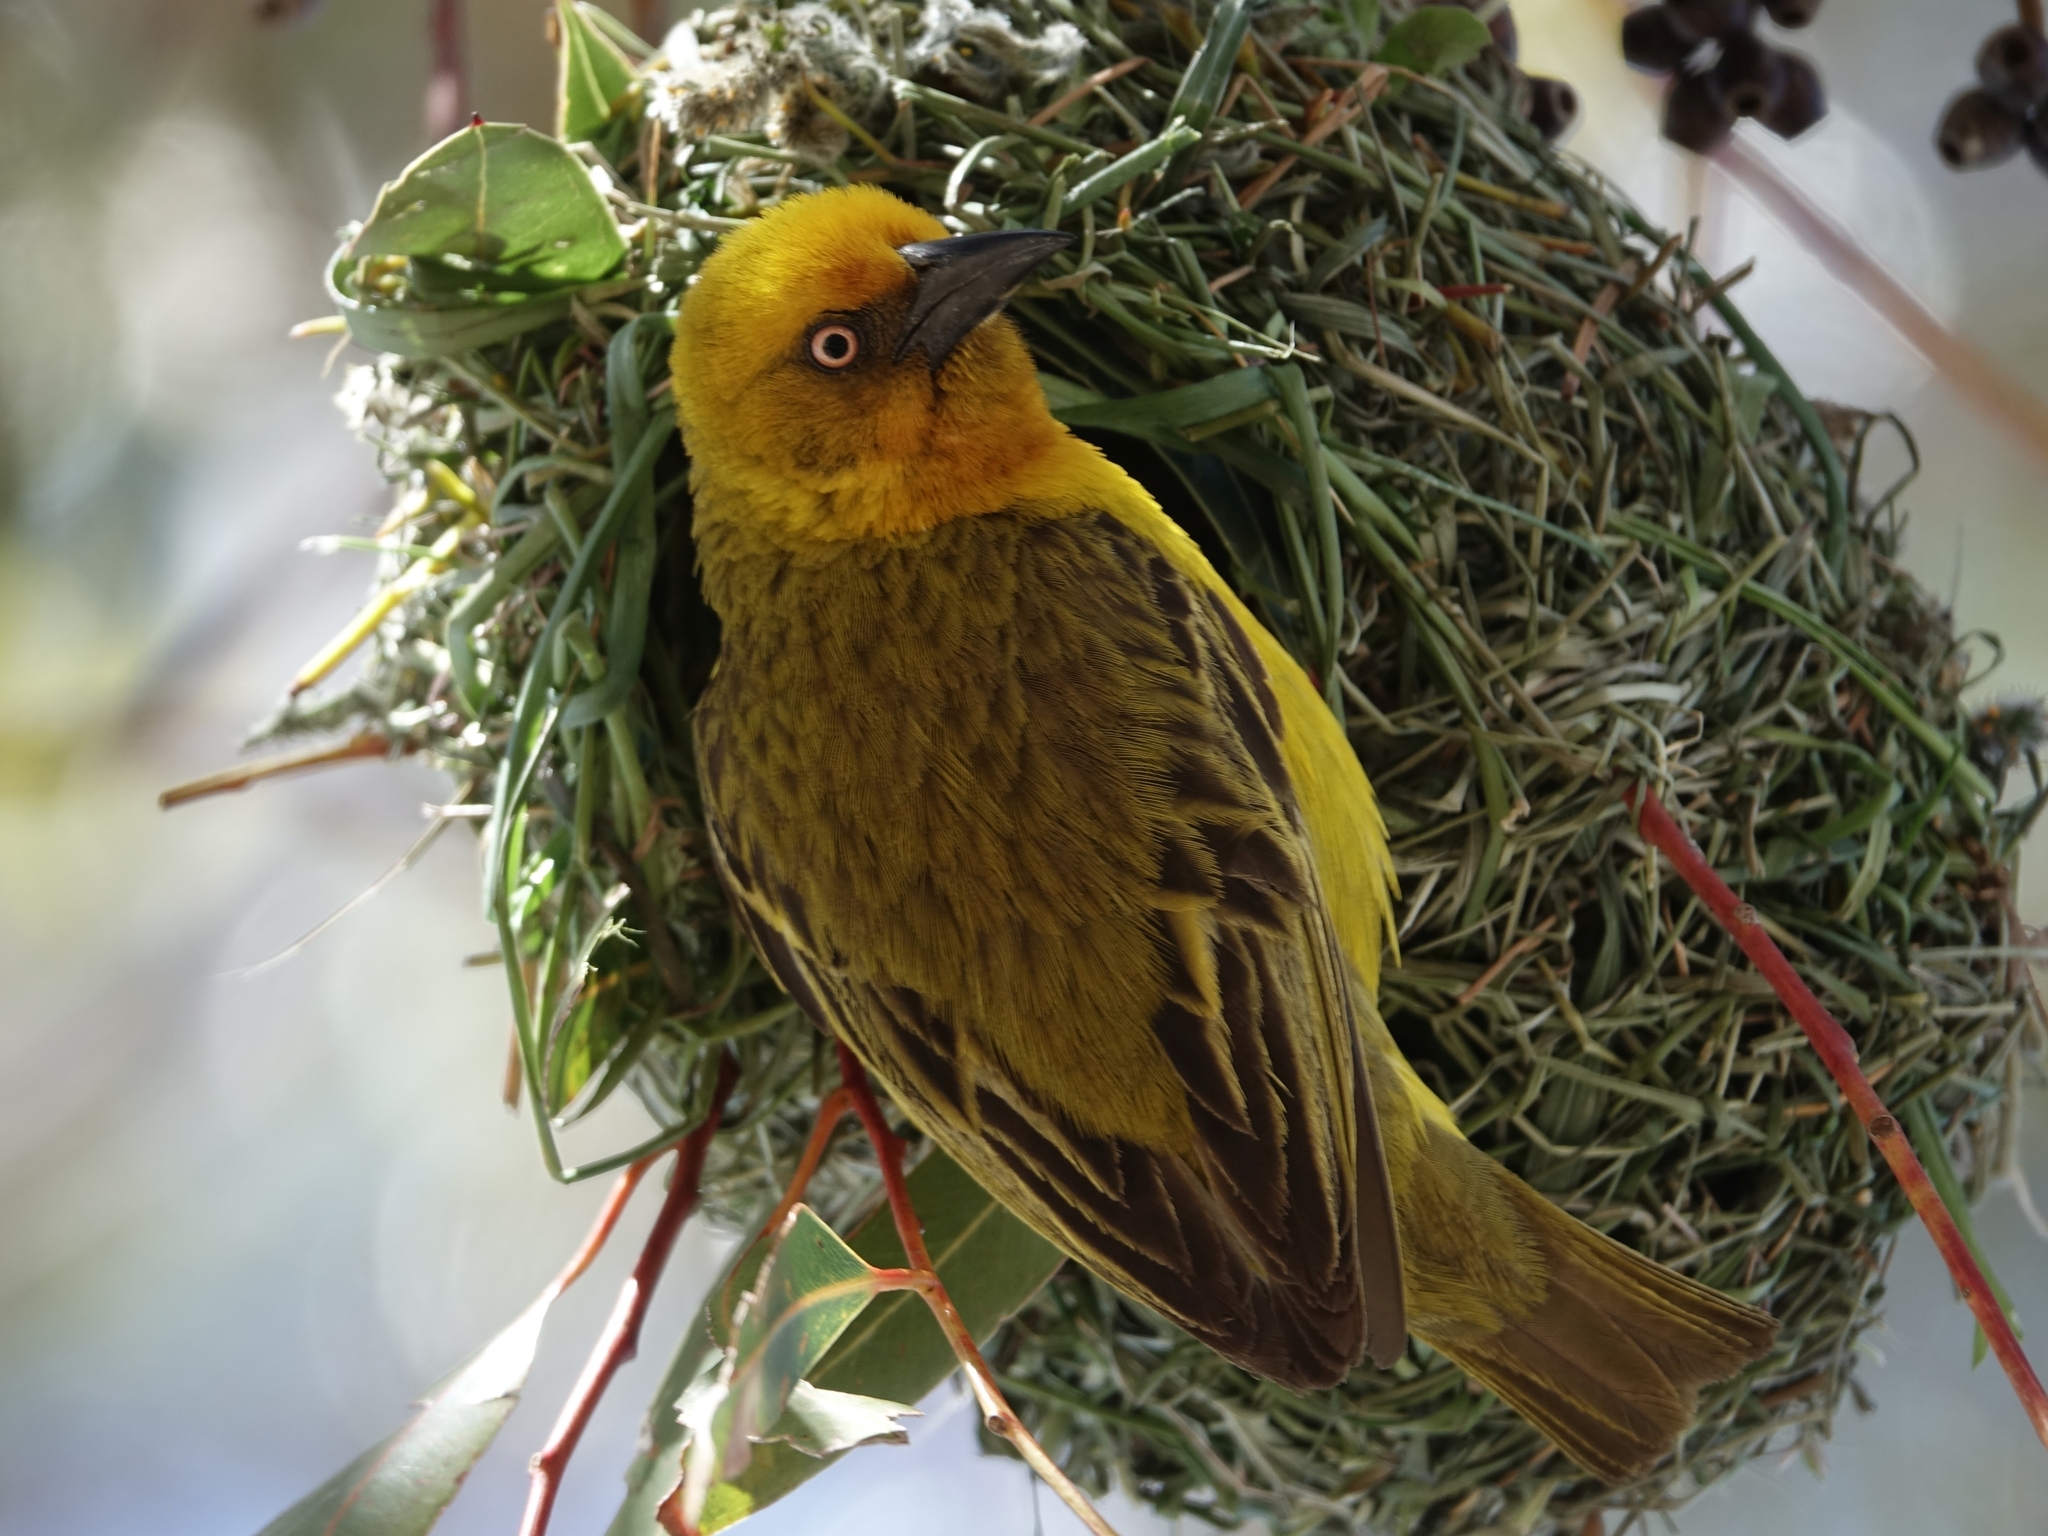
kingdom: Animalia
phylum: Chordata
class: Aves
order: Passeriformes
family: Ploceidae
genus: Ploceus
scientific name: Ploceus capensis
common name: Cape weaver
